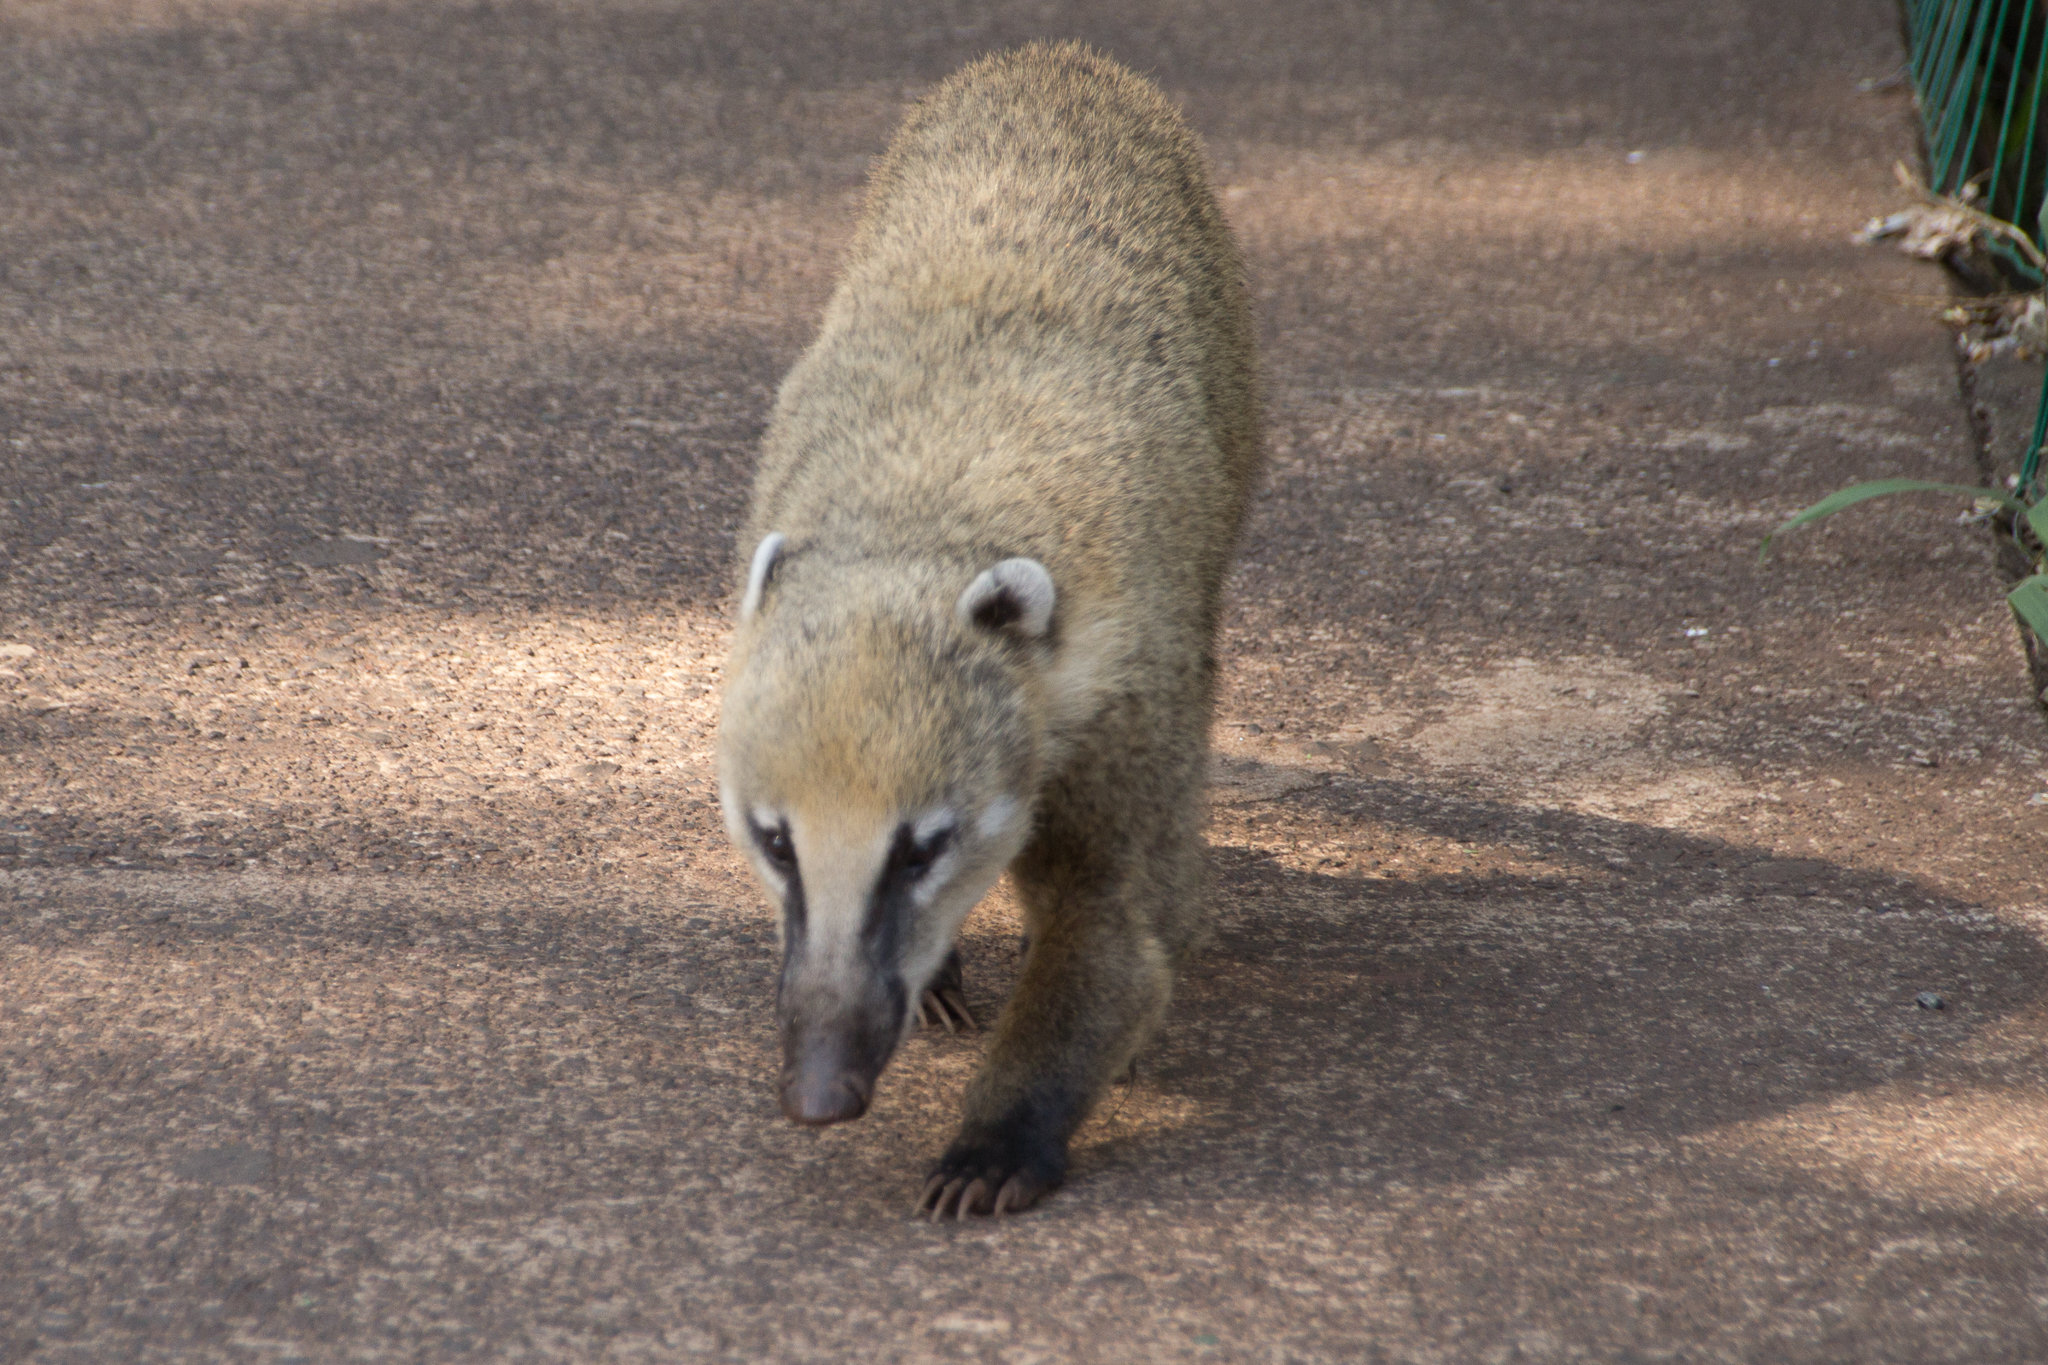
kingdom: Animalia
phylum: Chordata
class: Mammalia
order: Carnivora
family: Procyonidae
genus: Nasua
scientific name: Nasua nasua
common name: South american coati
